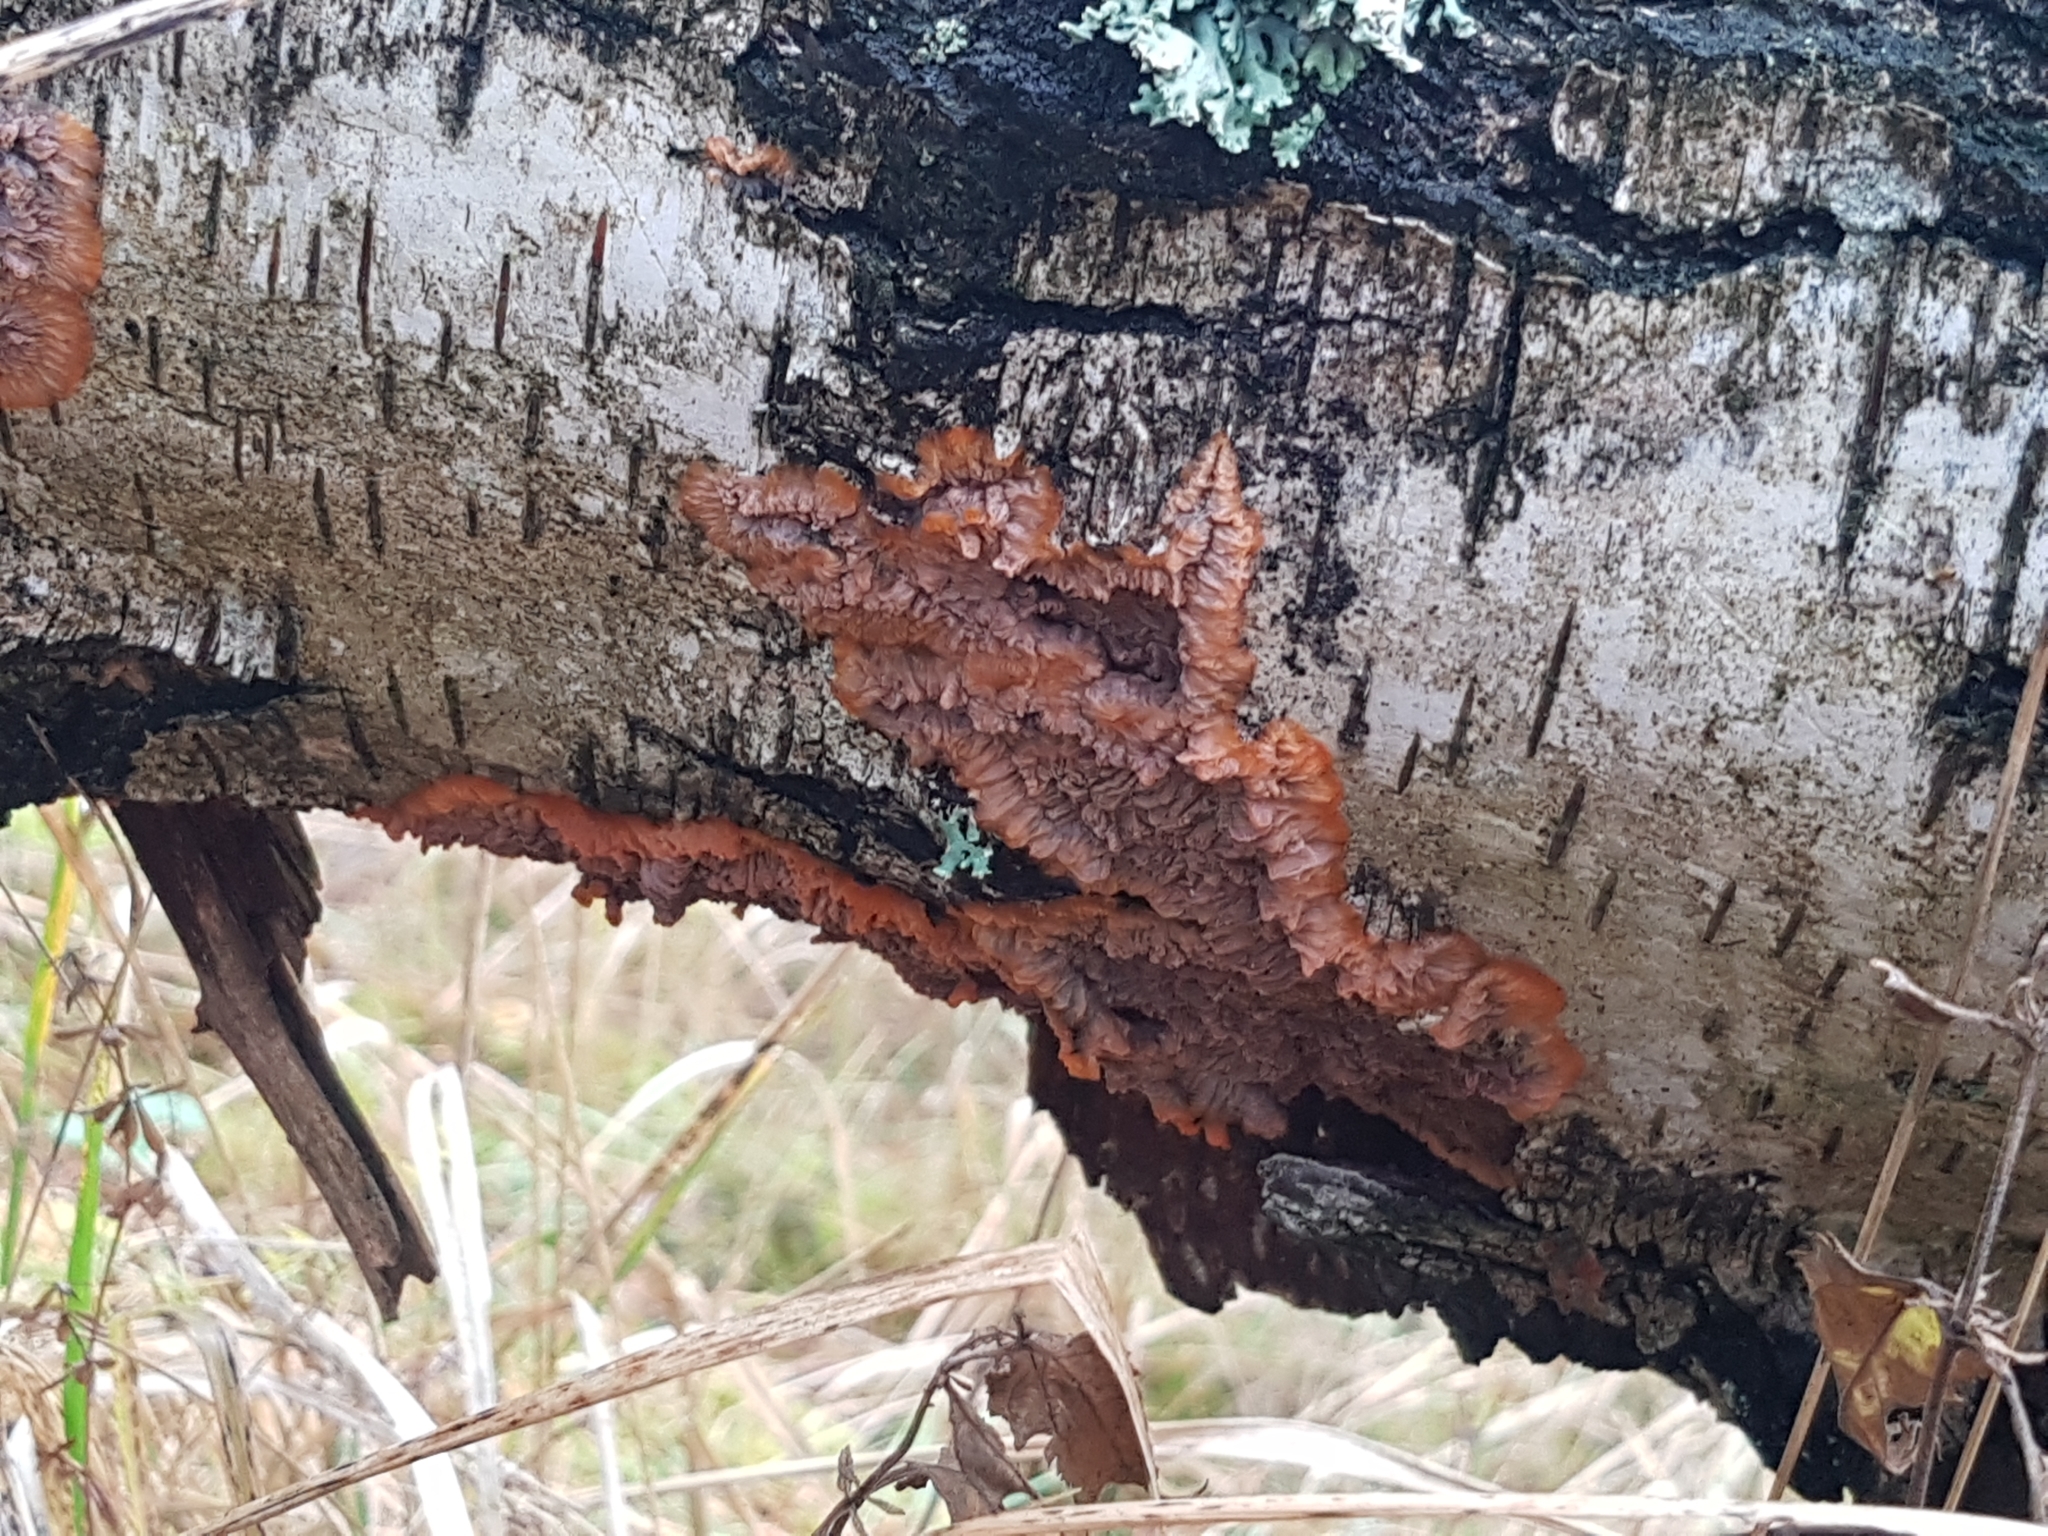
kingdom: Fungi
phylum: Basidiomycota
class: Agaricomycetes
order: Polyporales
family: Meruliaceae
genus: Phlebia
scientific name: Phlebia radiata
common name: Wrinkled crust
